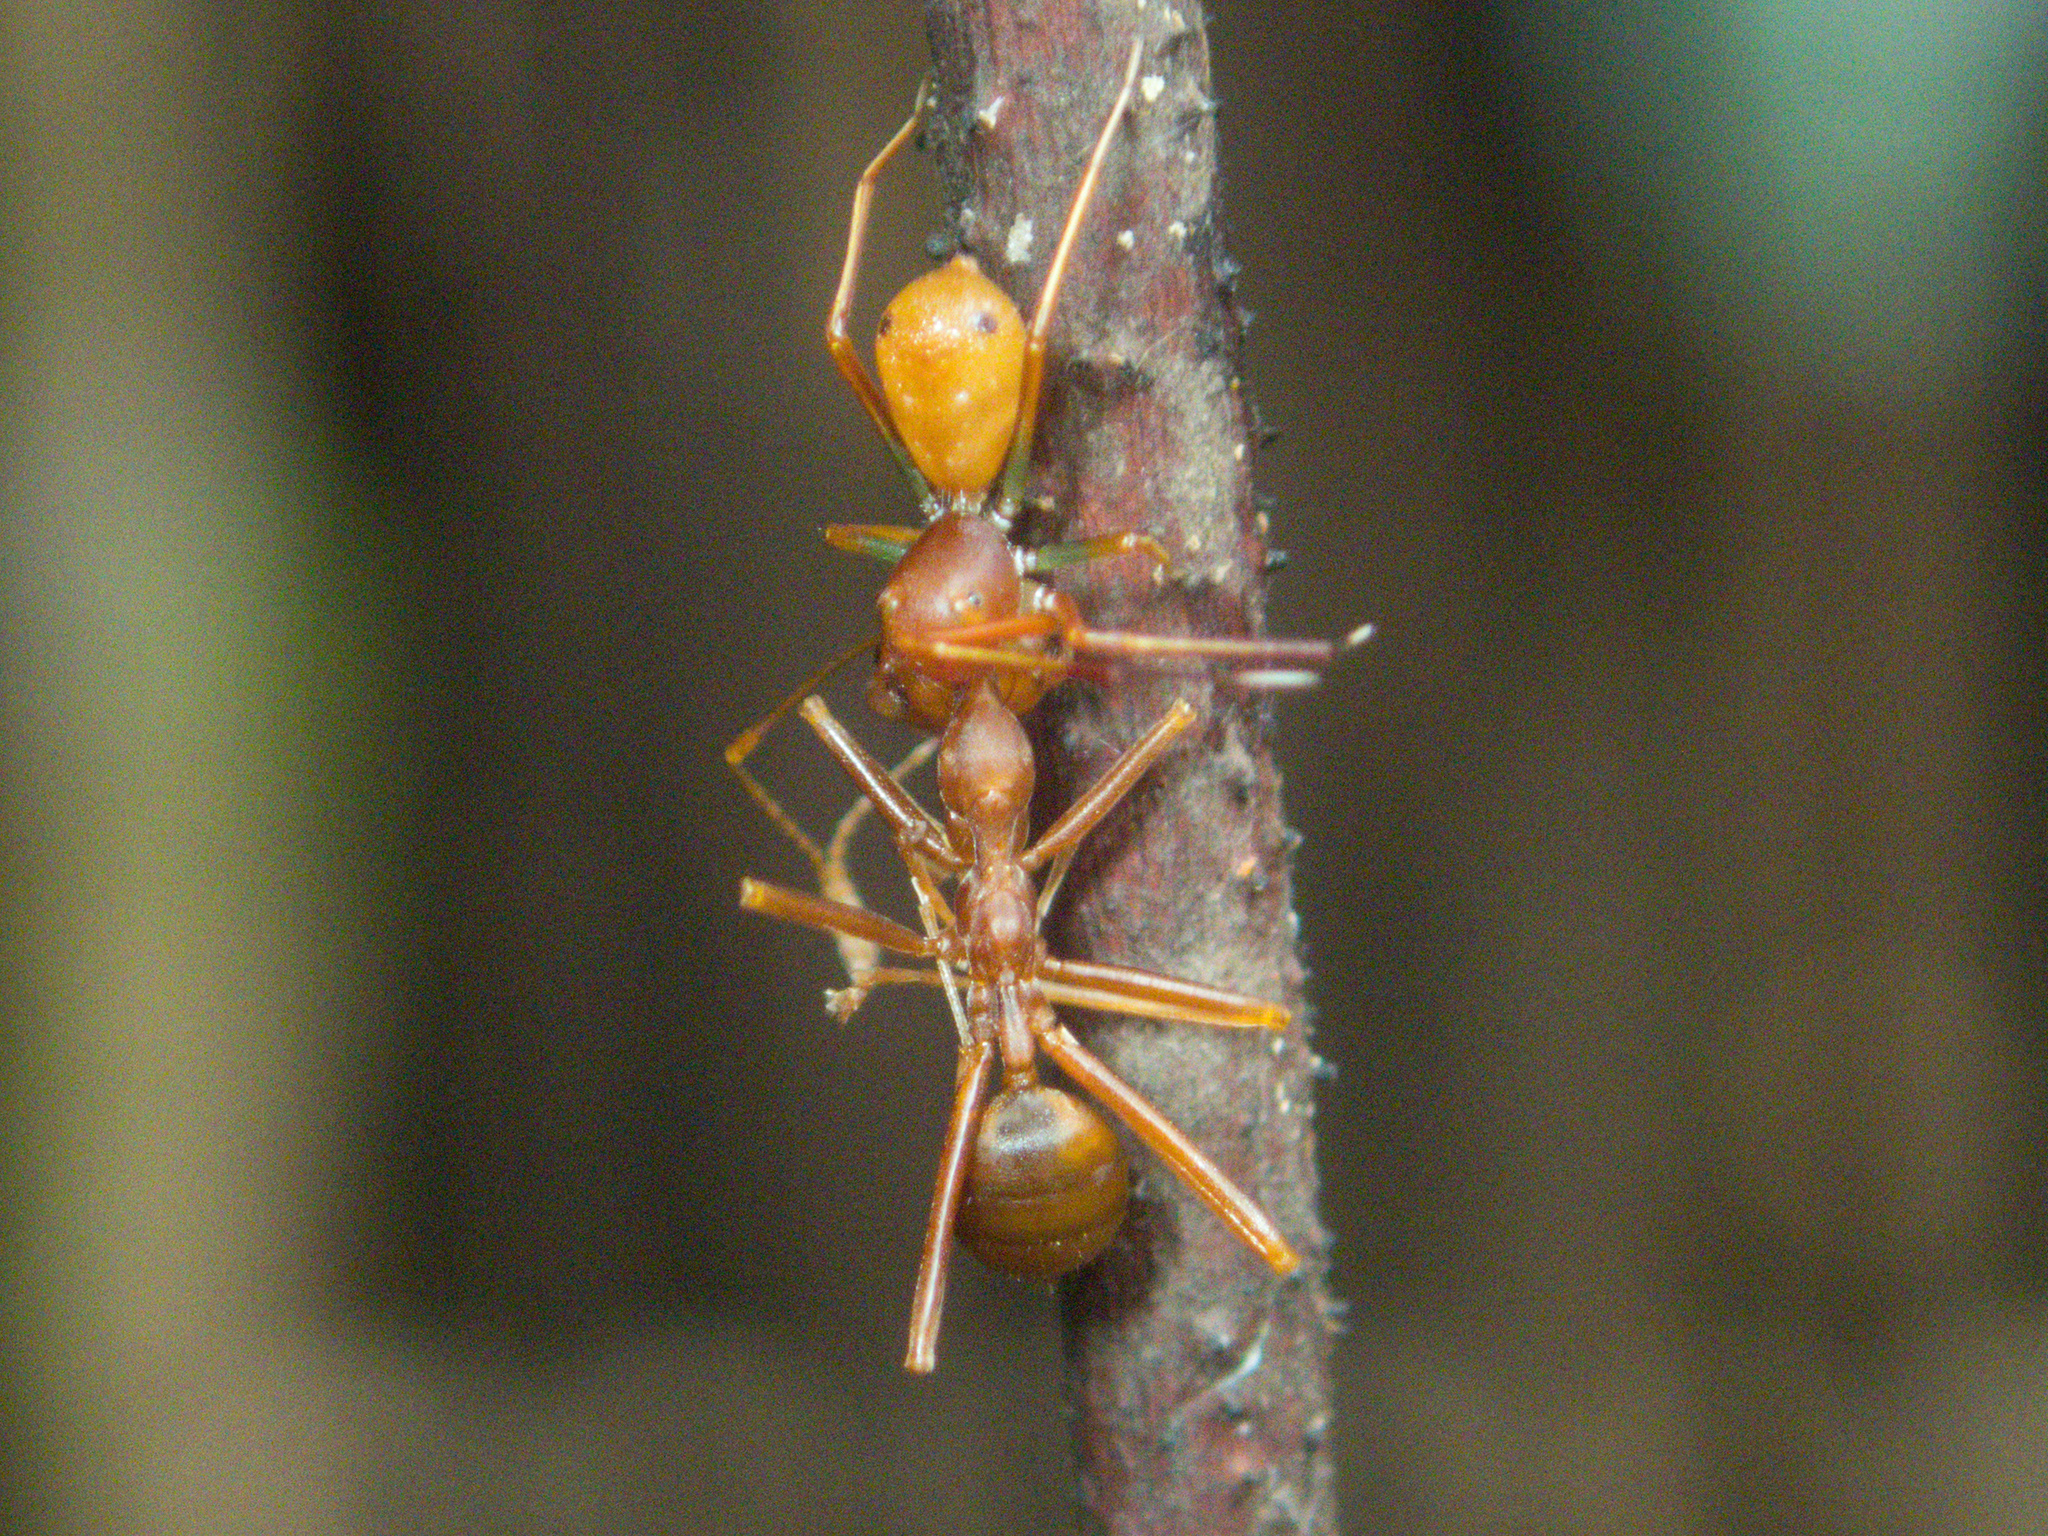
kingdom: Animalia
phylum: Arthropoda
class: Arachnida
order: Araneae
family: Thomisidae
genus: Amyciaea
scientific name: Amyciaea forticeps
